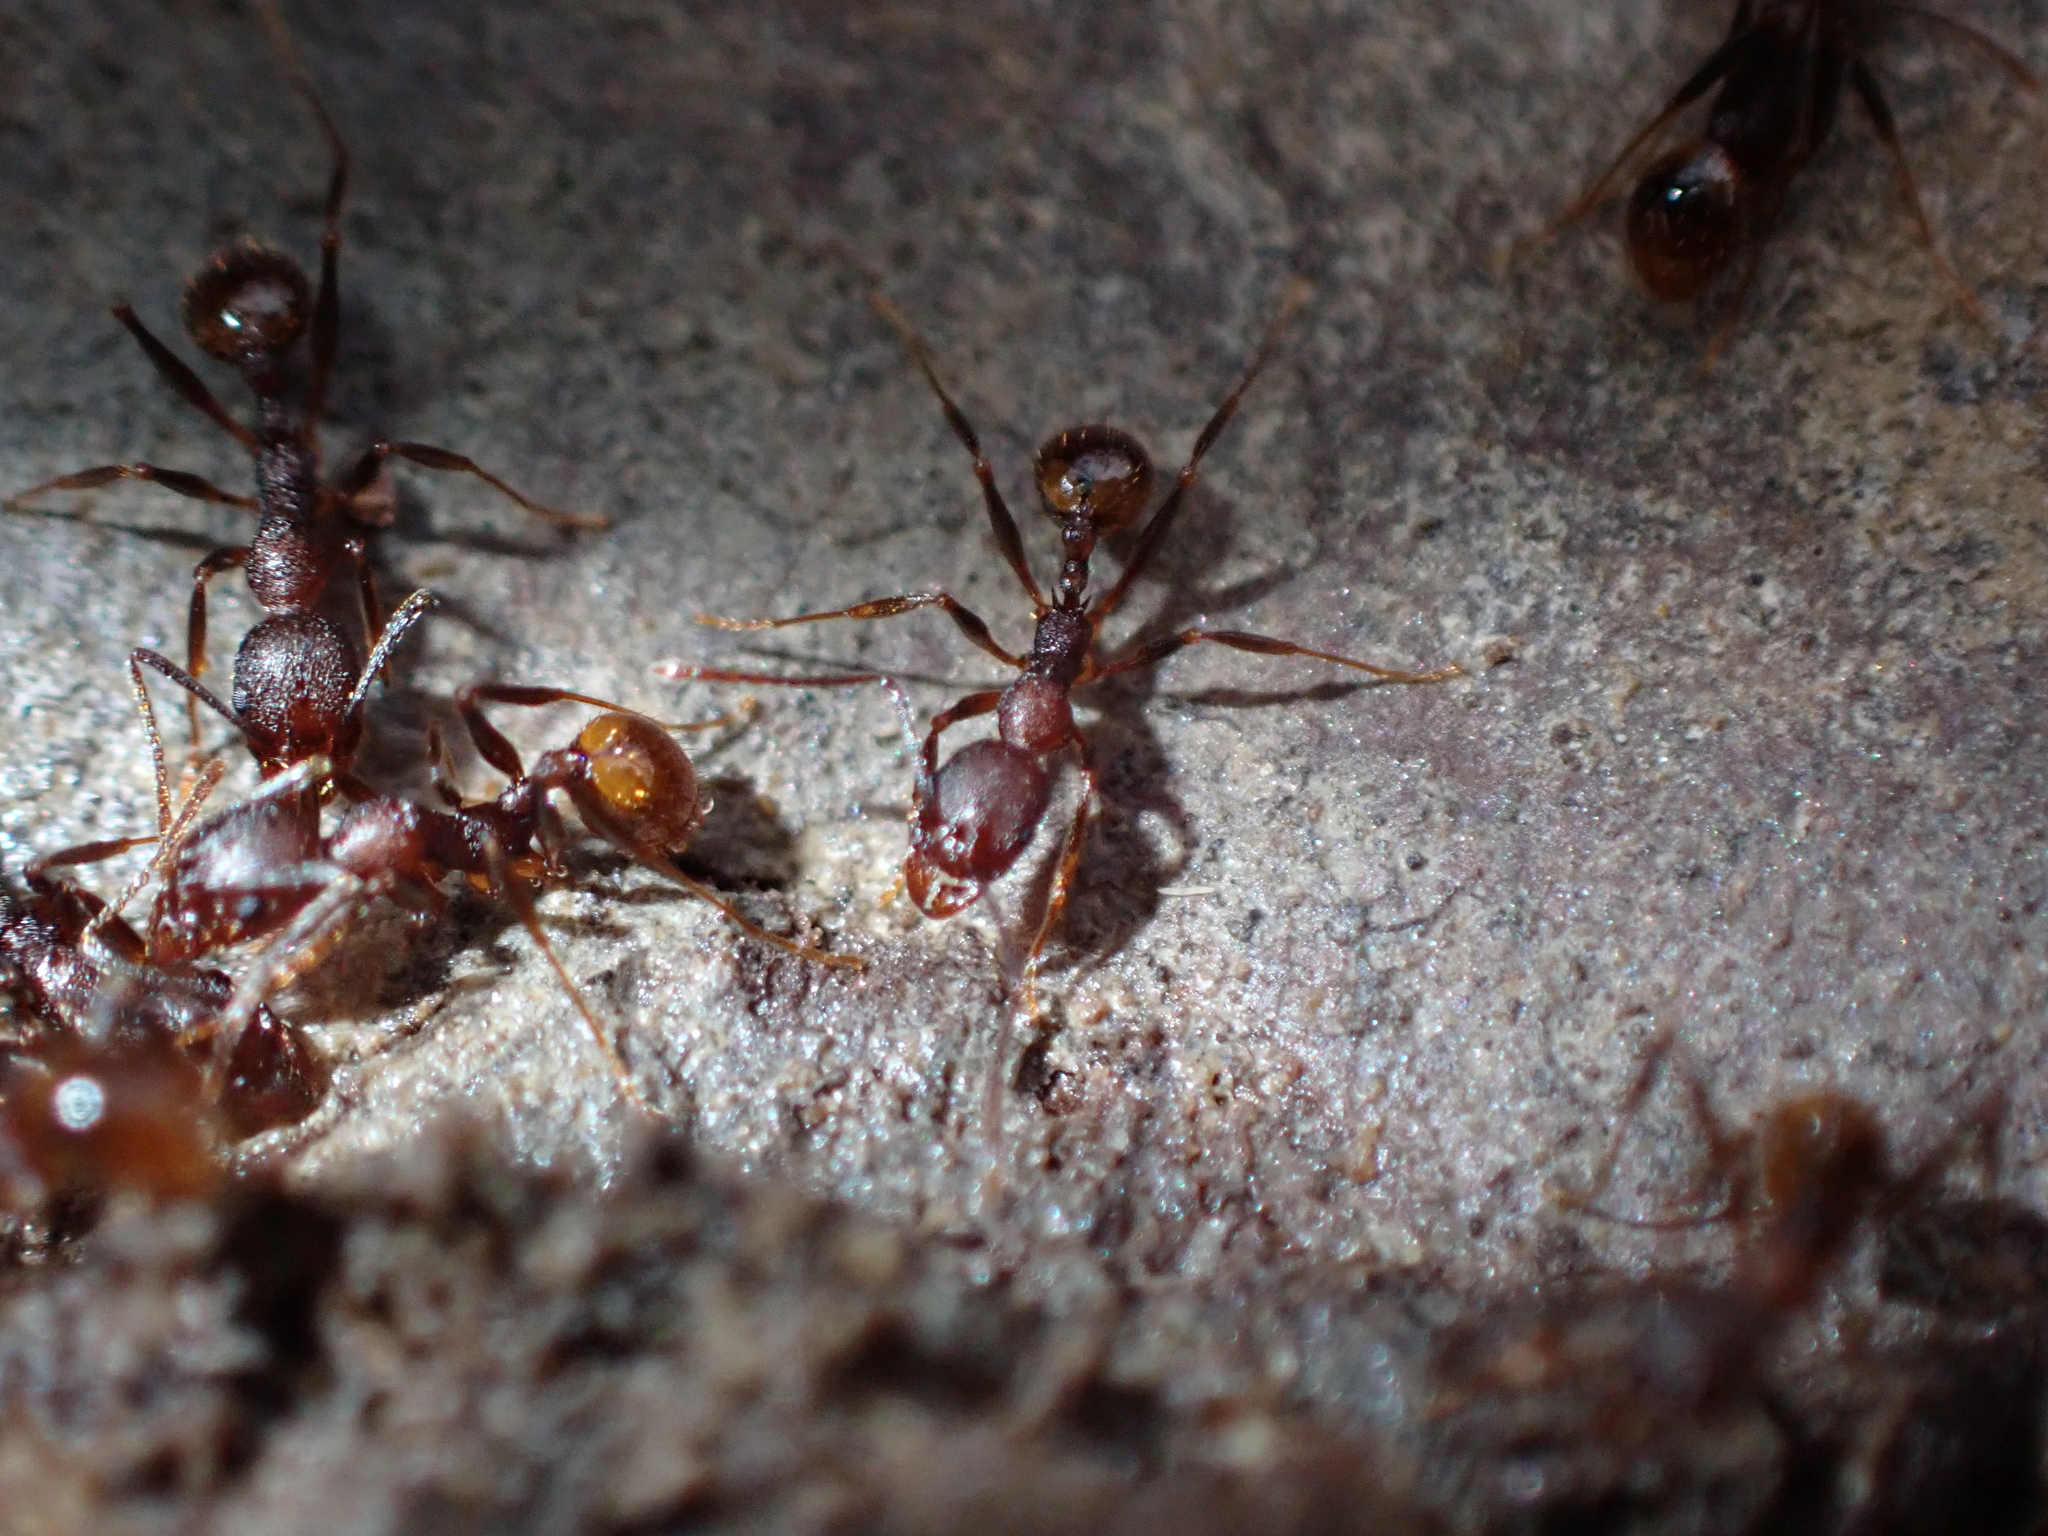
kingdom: Animalia
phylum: Arthropoda
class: Insecta
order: Hymenoptera
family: Formicidae
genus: Aphaenogaster
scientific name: Aphaenogaster fulva
